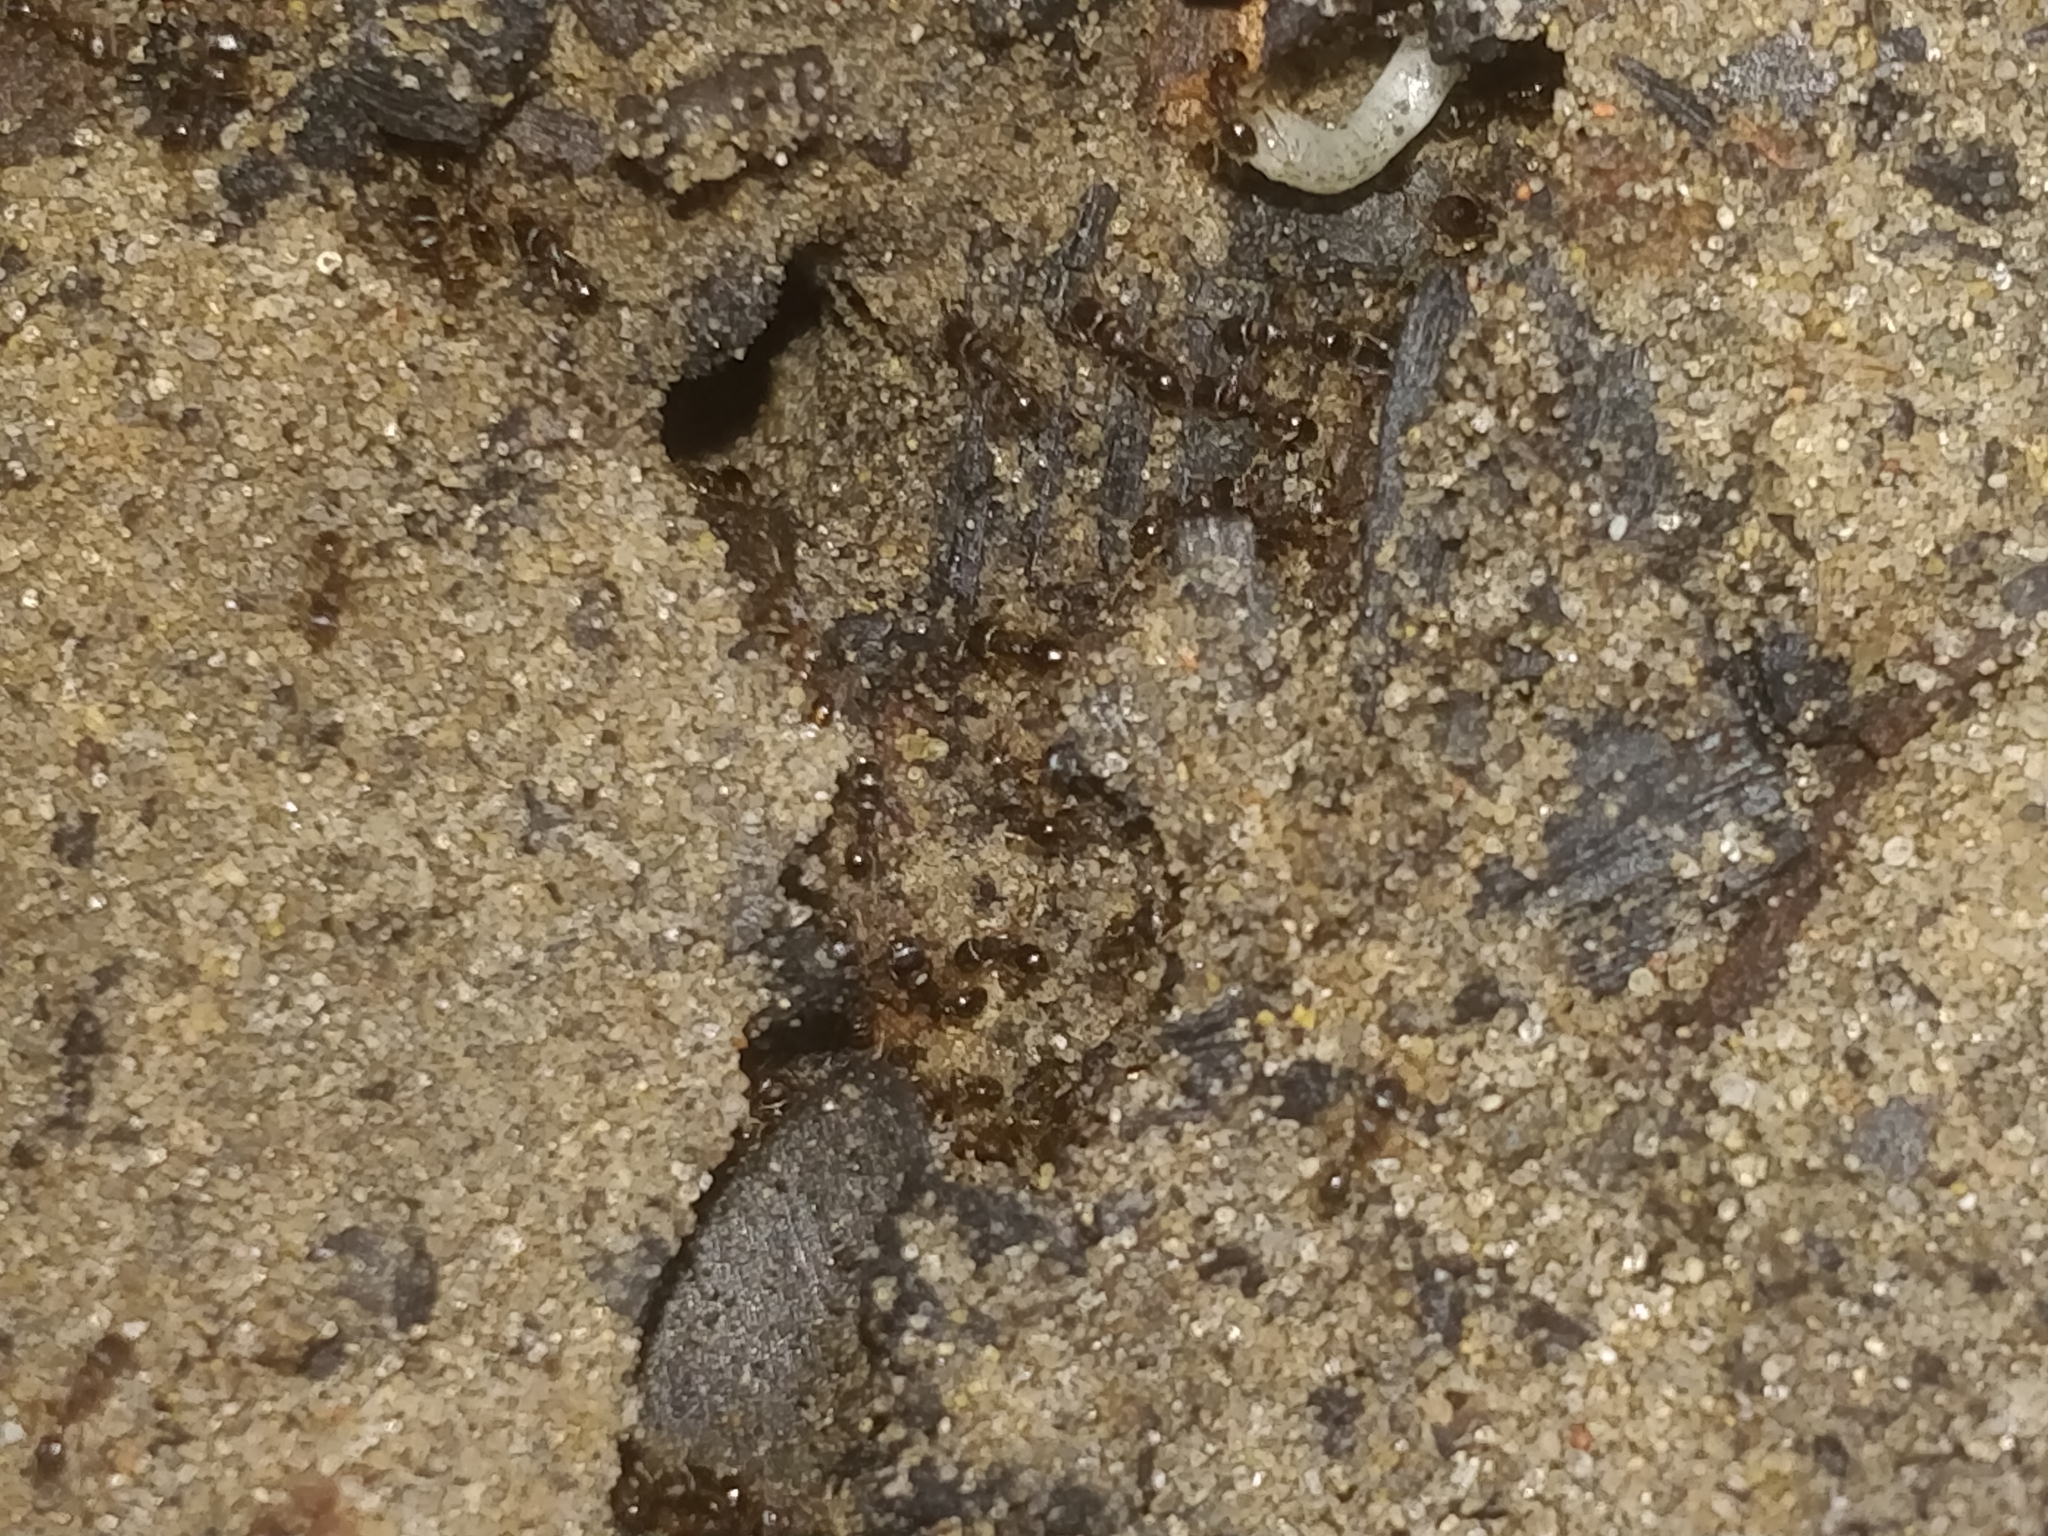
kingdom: Animalia
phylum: Arthropoda
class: Insecta
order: Hymenoptera
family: Formicidae
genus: Tetramorium
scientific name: Tetramorium immigrans
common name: Pavement ant
